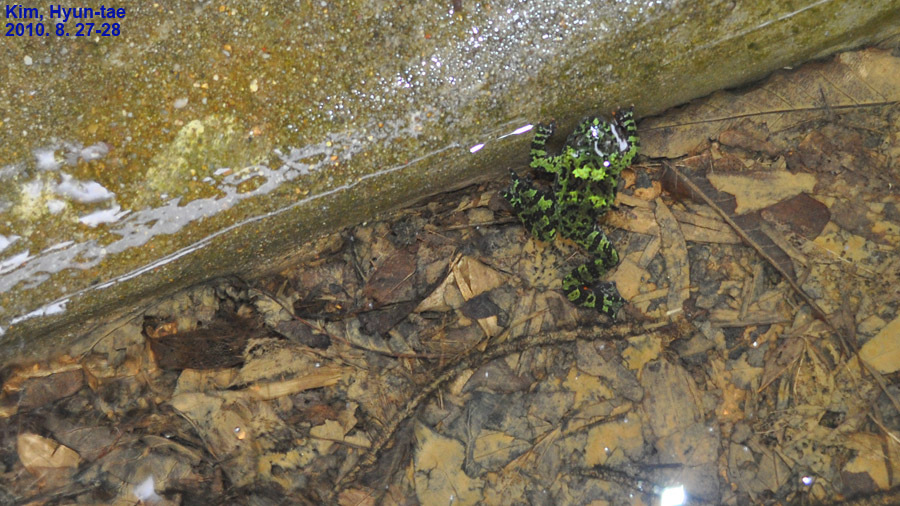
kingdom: Animalia
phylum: Chordata
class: Amphibia
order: Anura
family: Bombinatoridae
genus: Bombina
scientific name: Bombina orientalis
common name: Oriental firebelly toad
